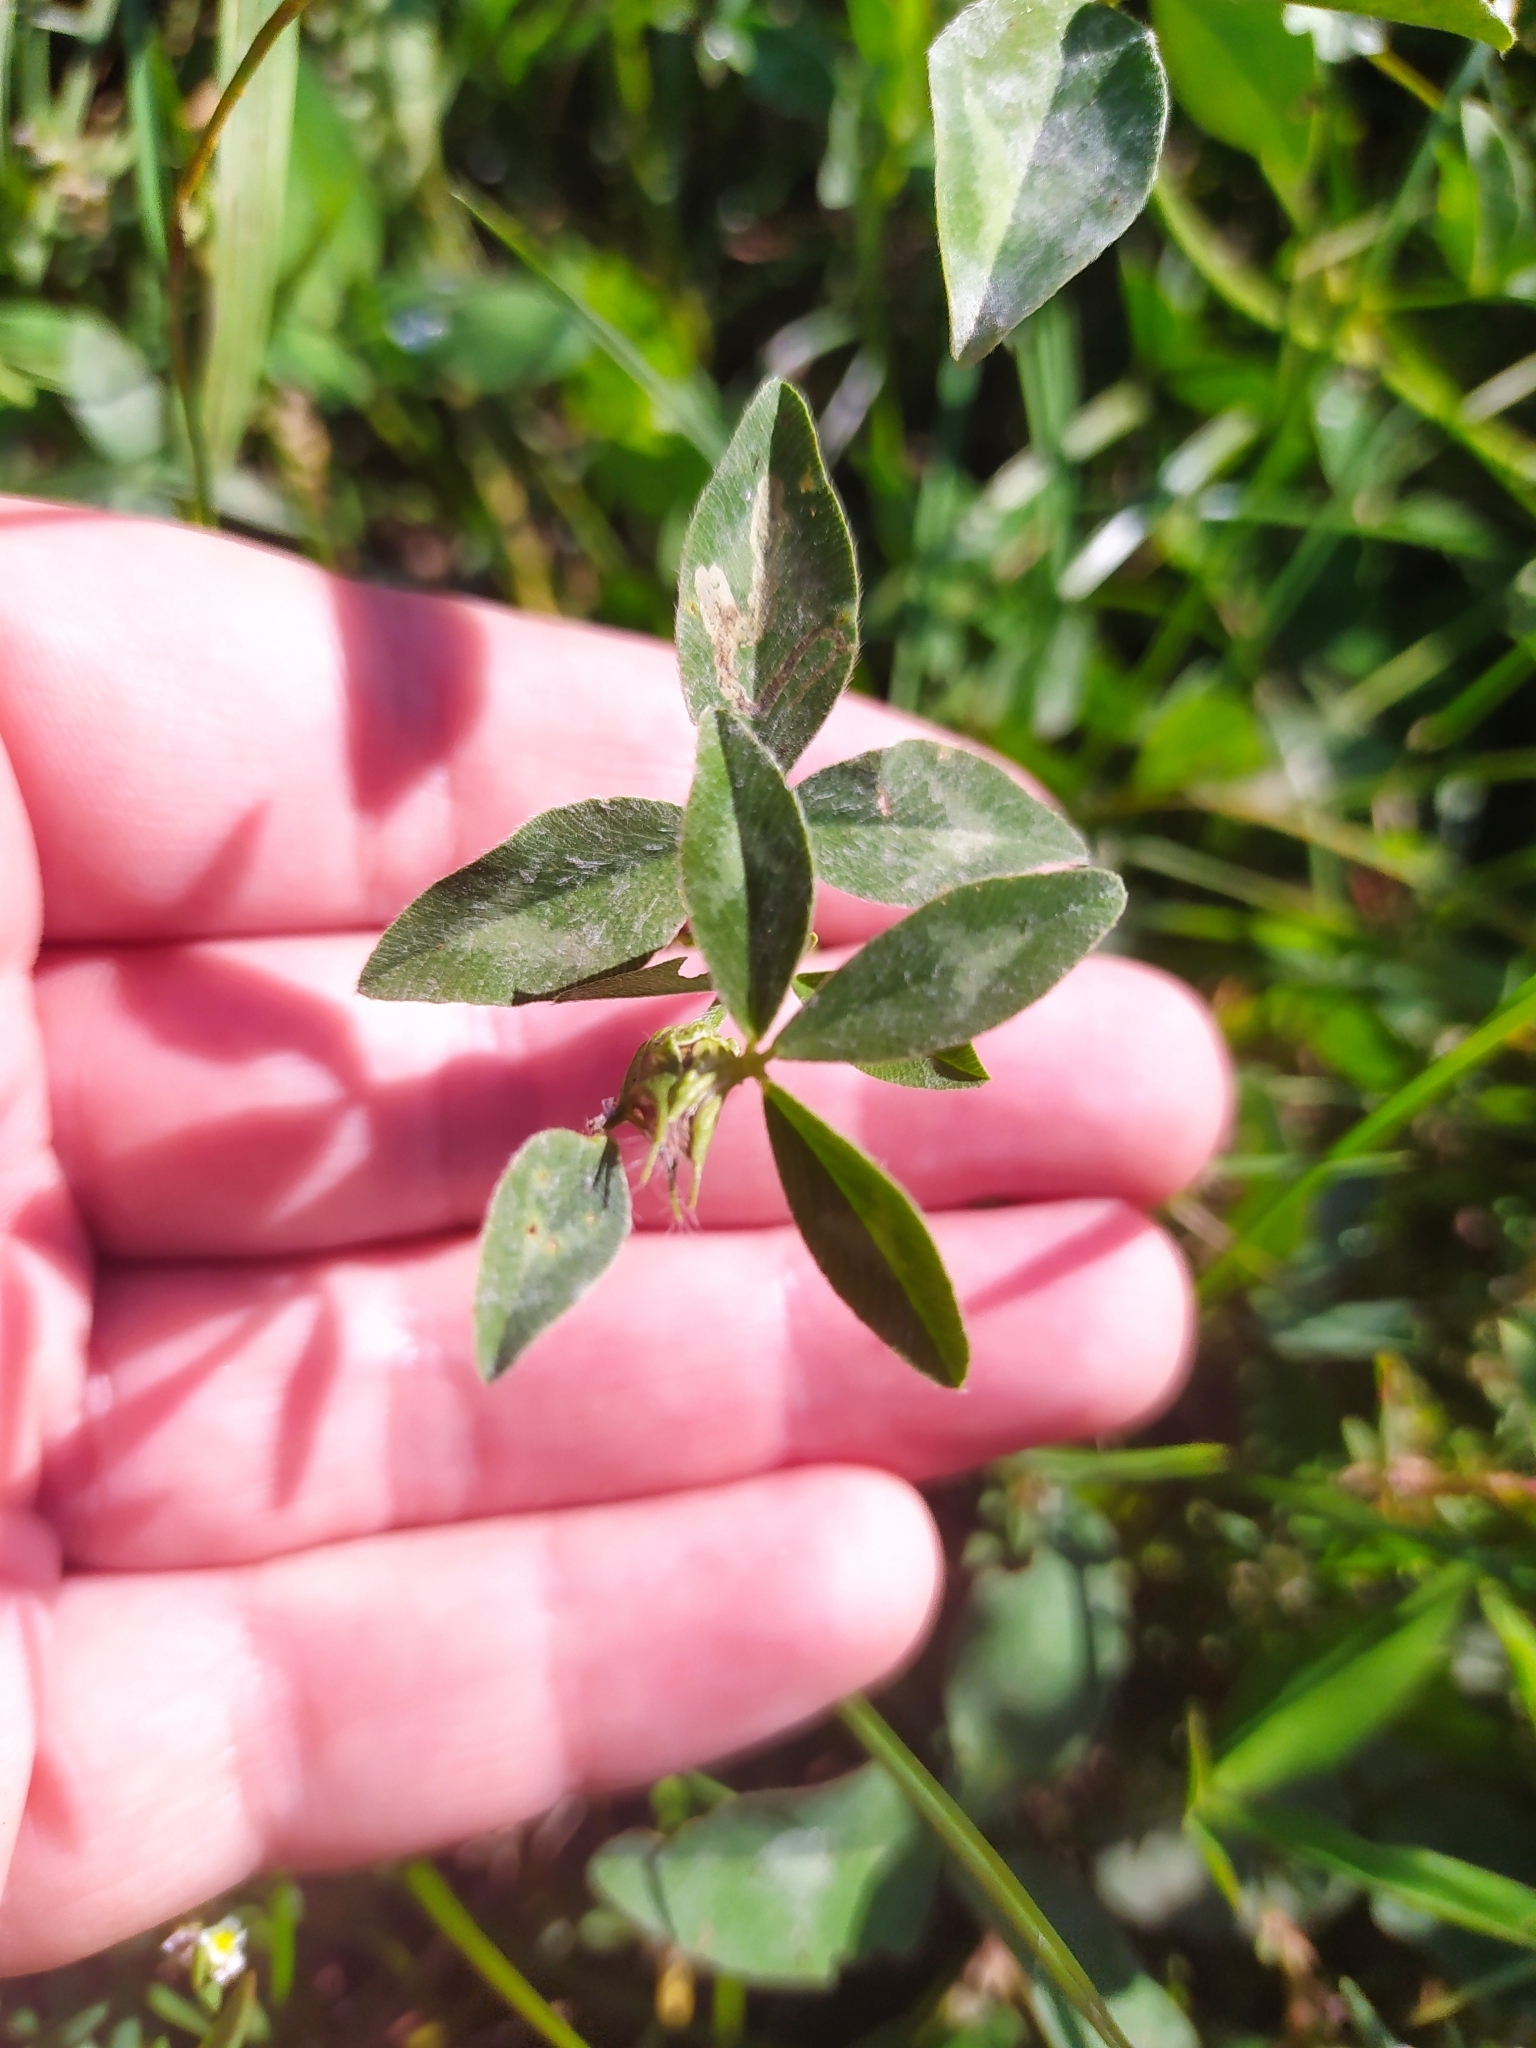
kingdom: Plantae
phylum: Tracheophyta
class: Magnoliopsida
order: Fabales
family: Fabaceae
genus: Trifolium
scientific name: Trifolium pratense
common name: Red clover
